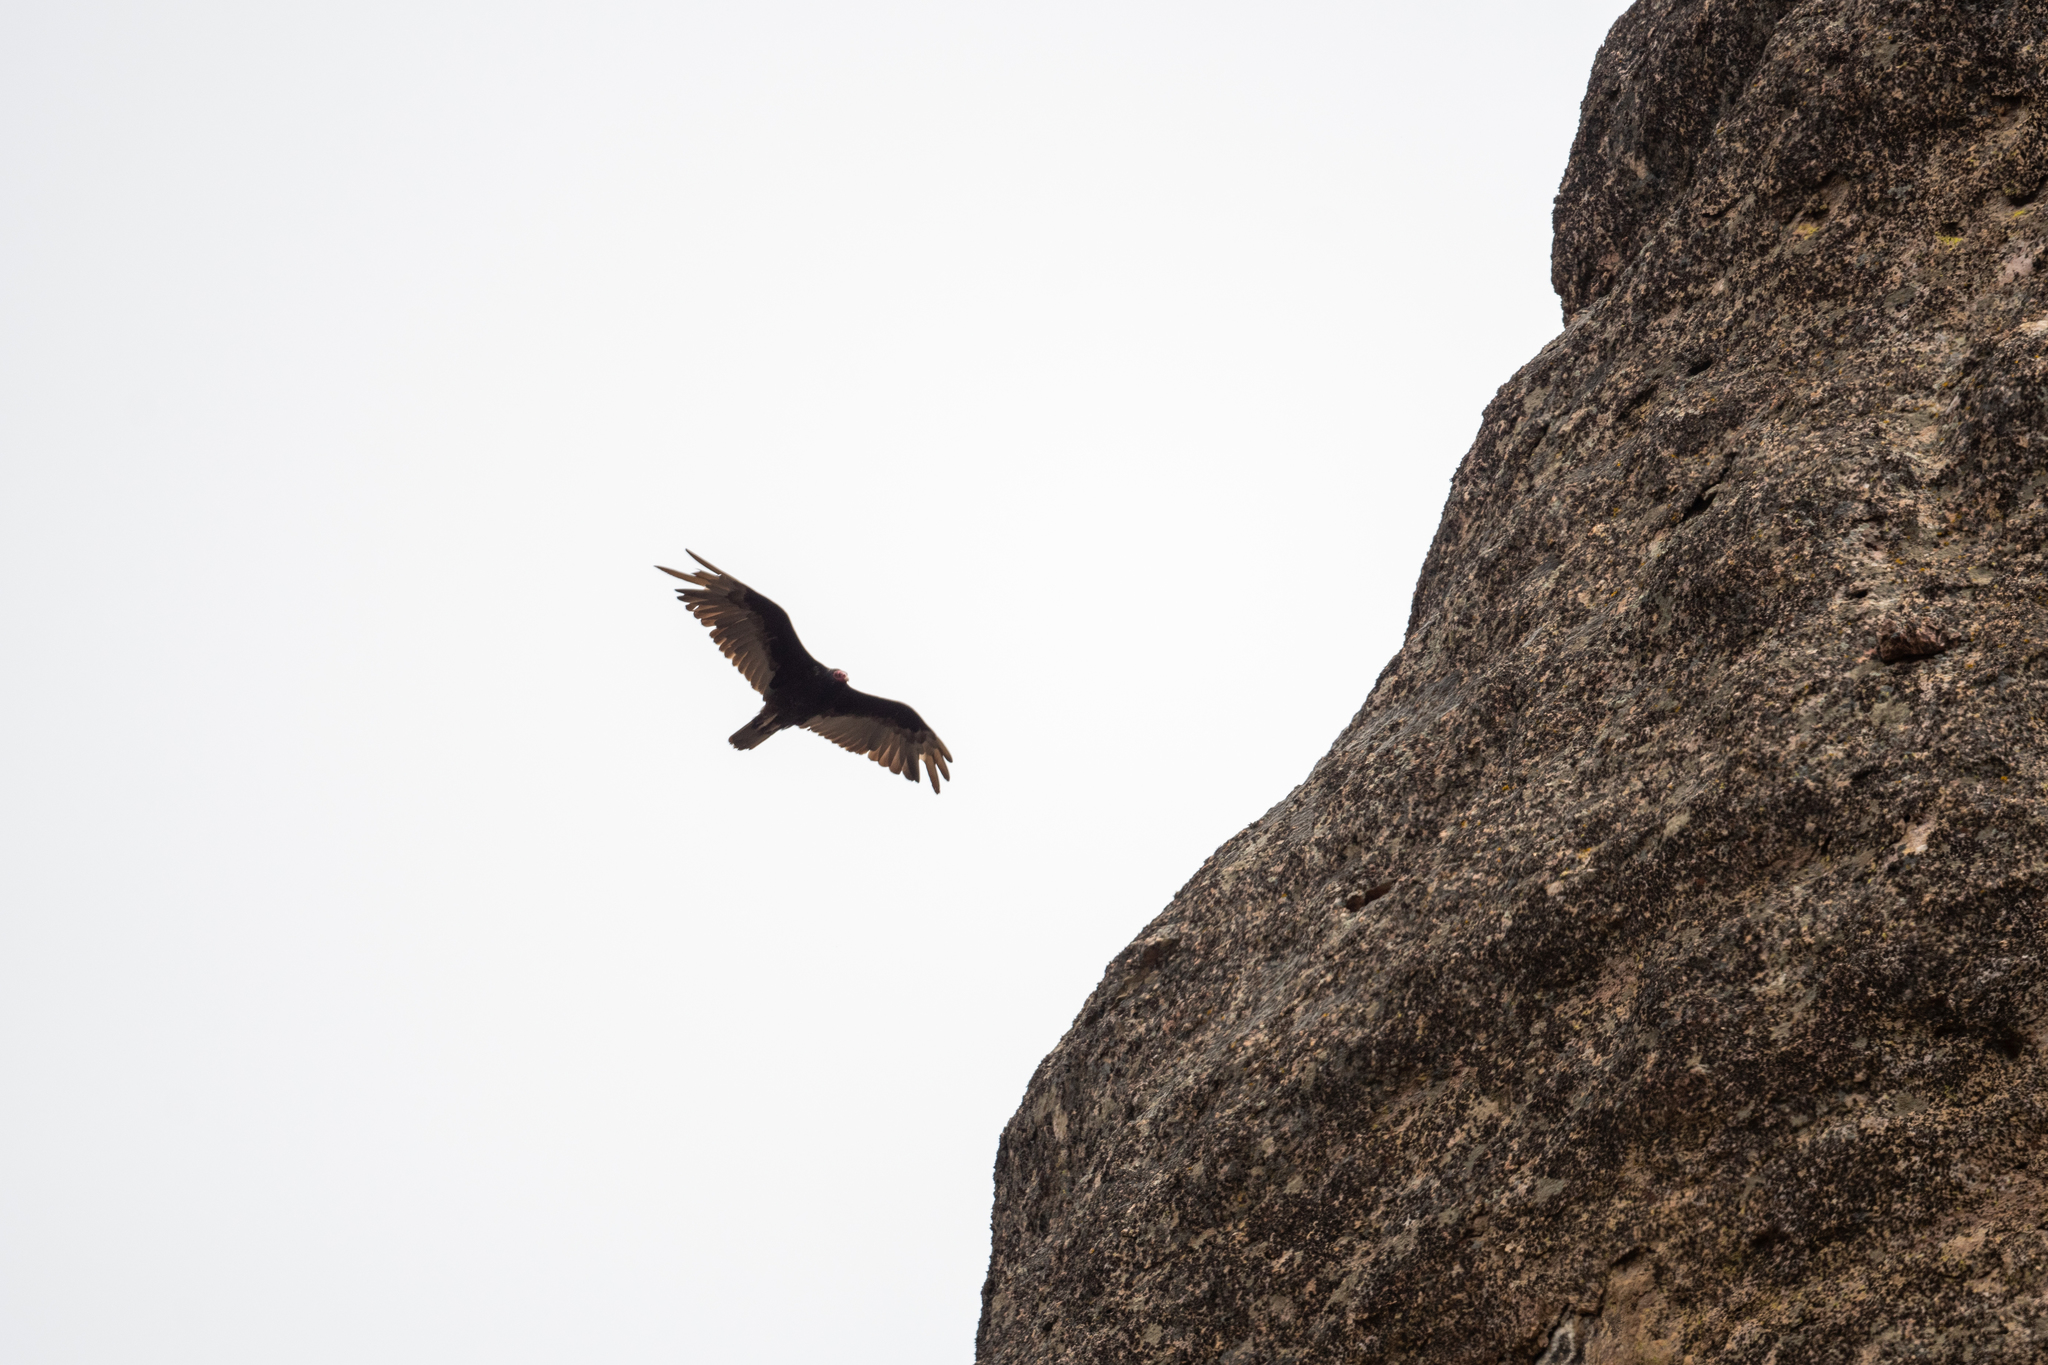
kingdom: Animalia
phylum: Chordata
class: Aves
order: Accipitriformes
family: Cathartidae
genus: Cathartes
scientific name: Cathartes aura
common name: Turkey vulture
